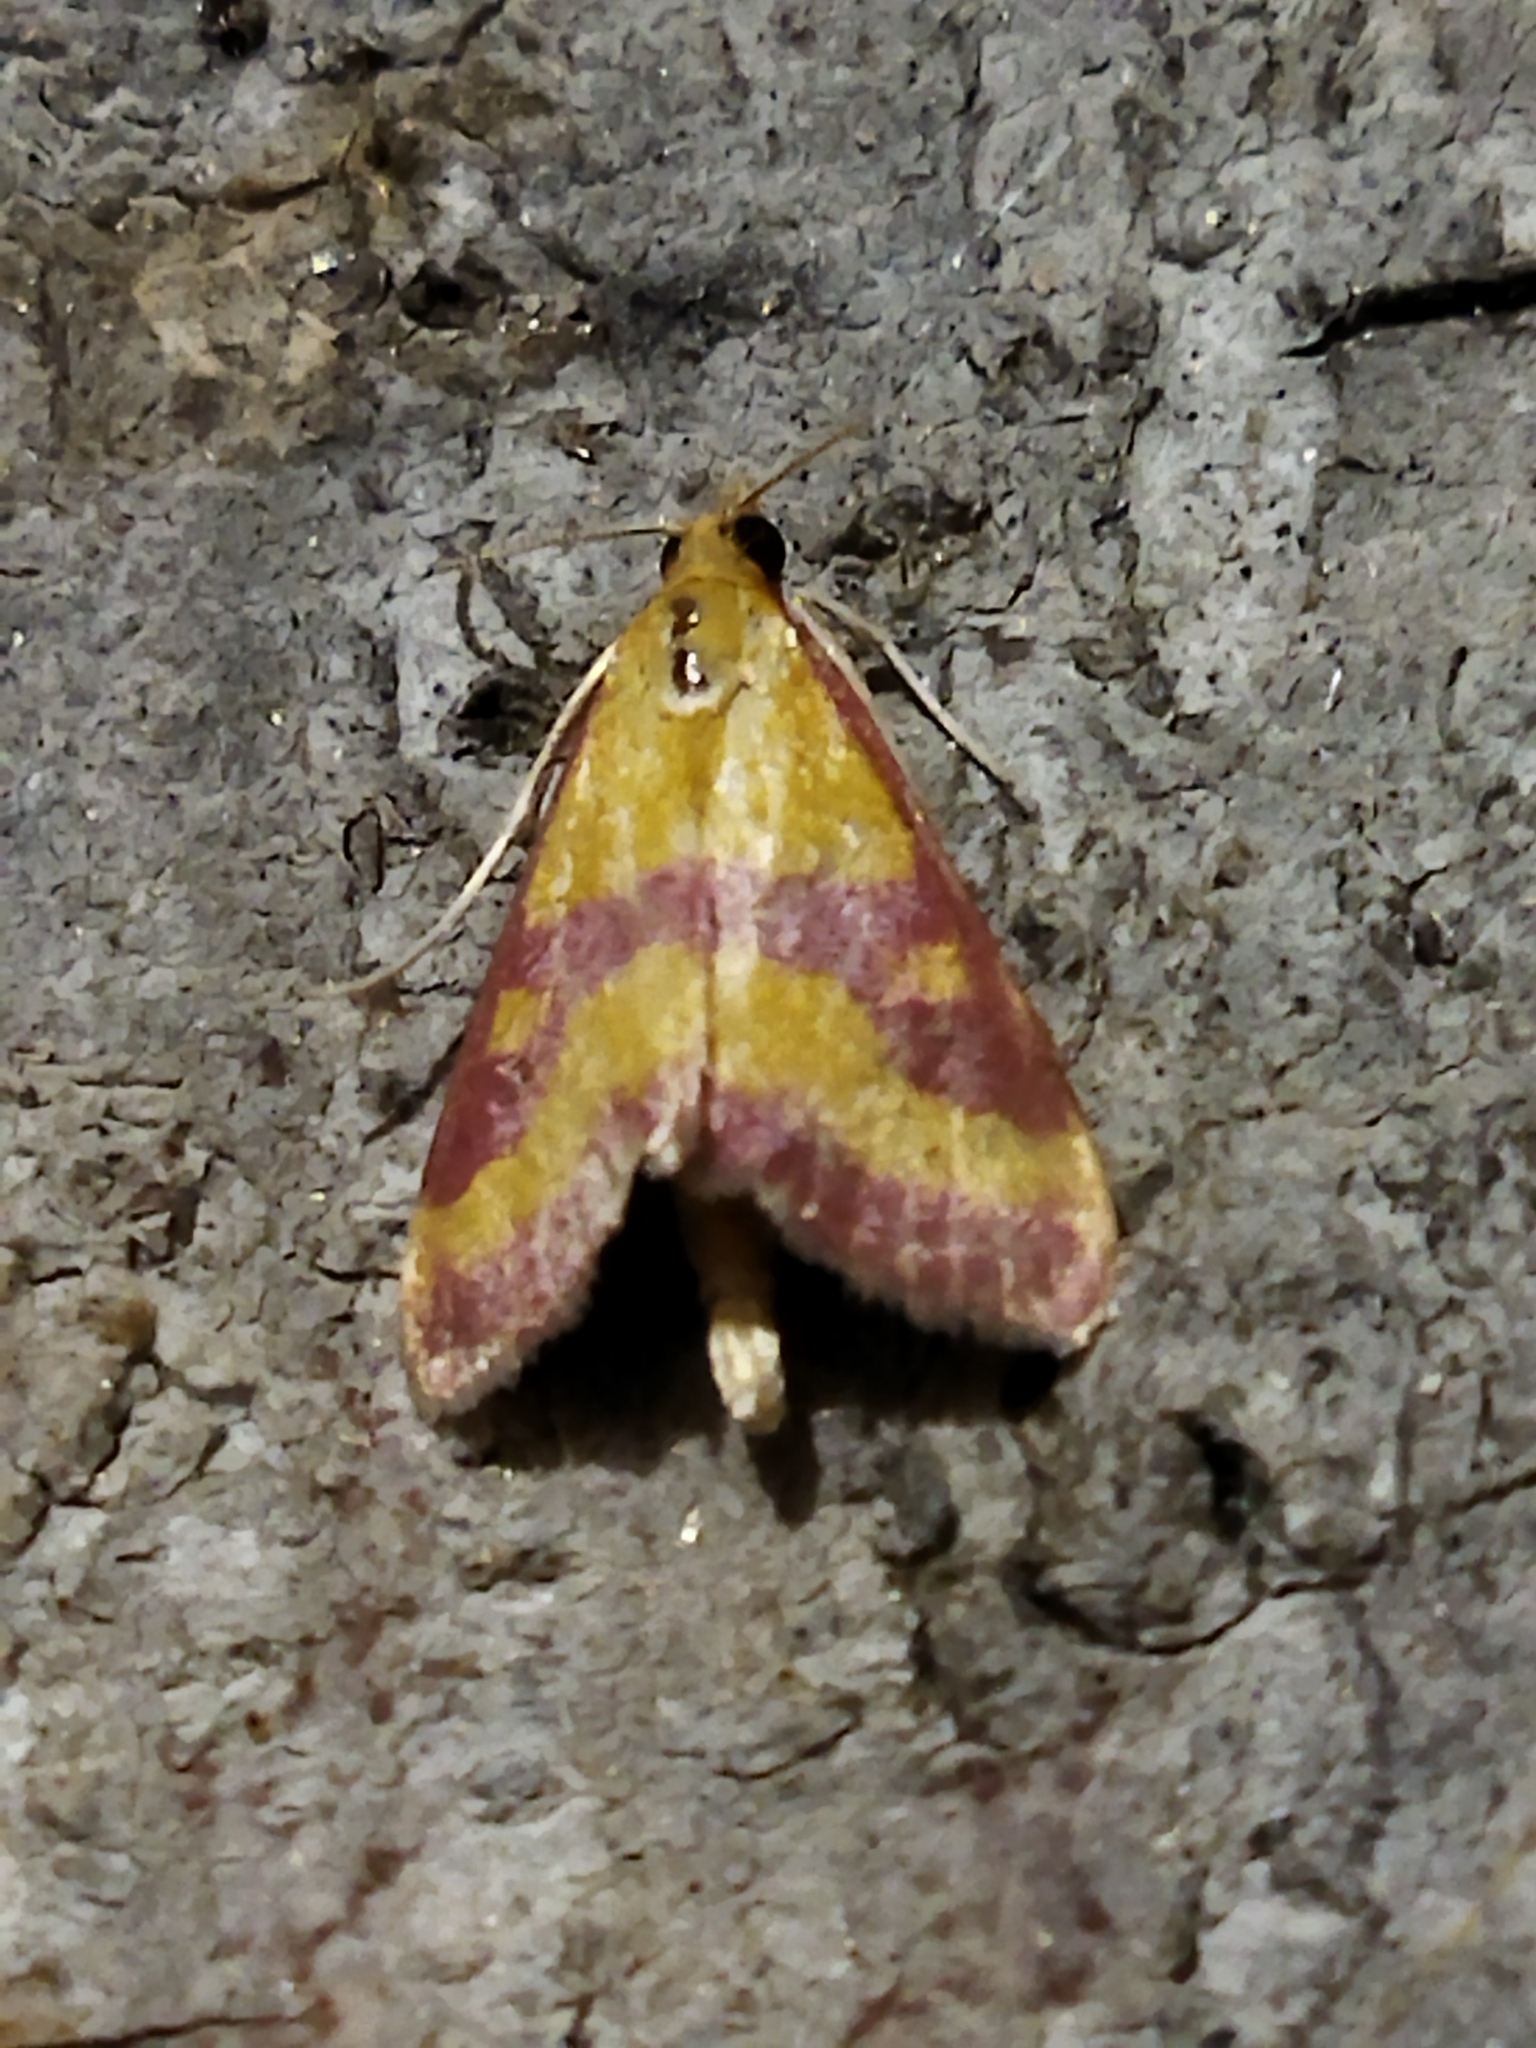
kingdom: Animalia
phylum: Arthropoda
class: Insecta
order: Lepidoptera
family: Crambidae
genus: Pyrausta
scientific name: Pyrausta sanguinalis
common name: Scarce crimson and gold
